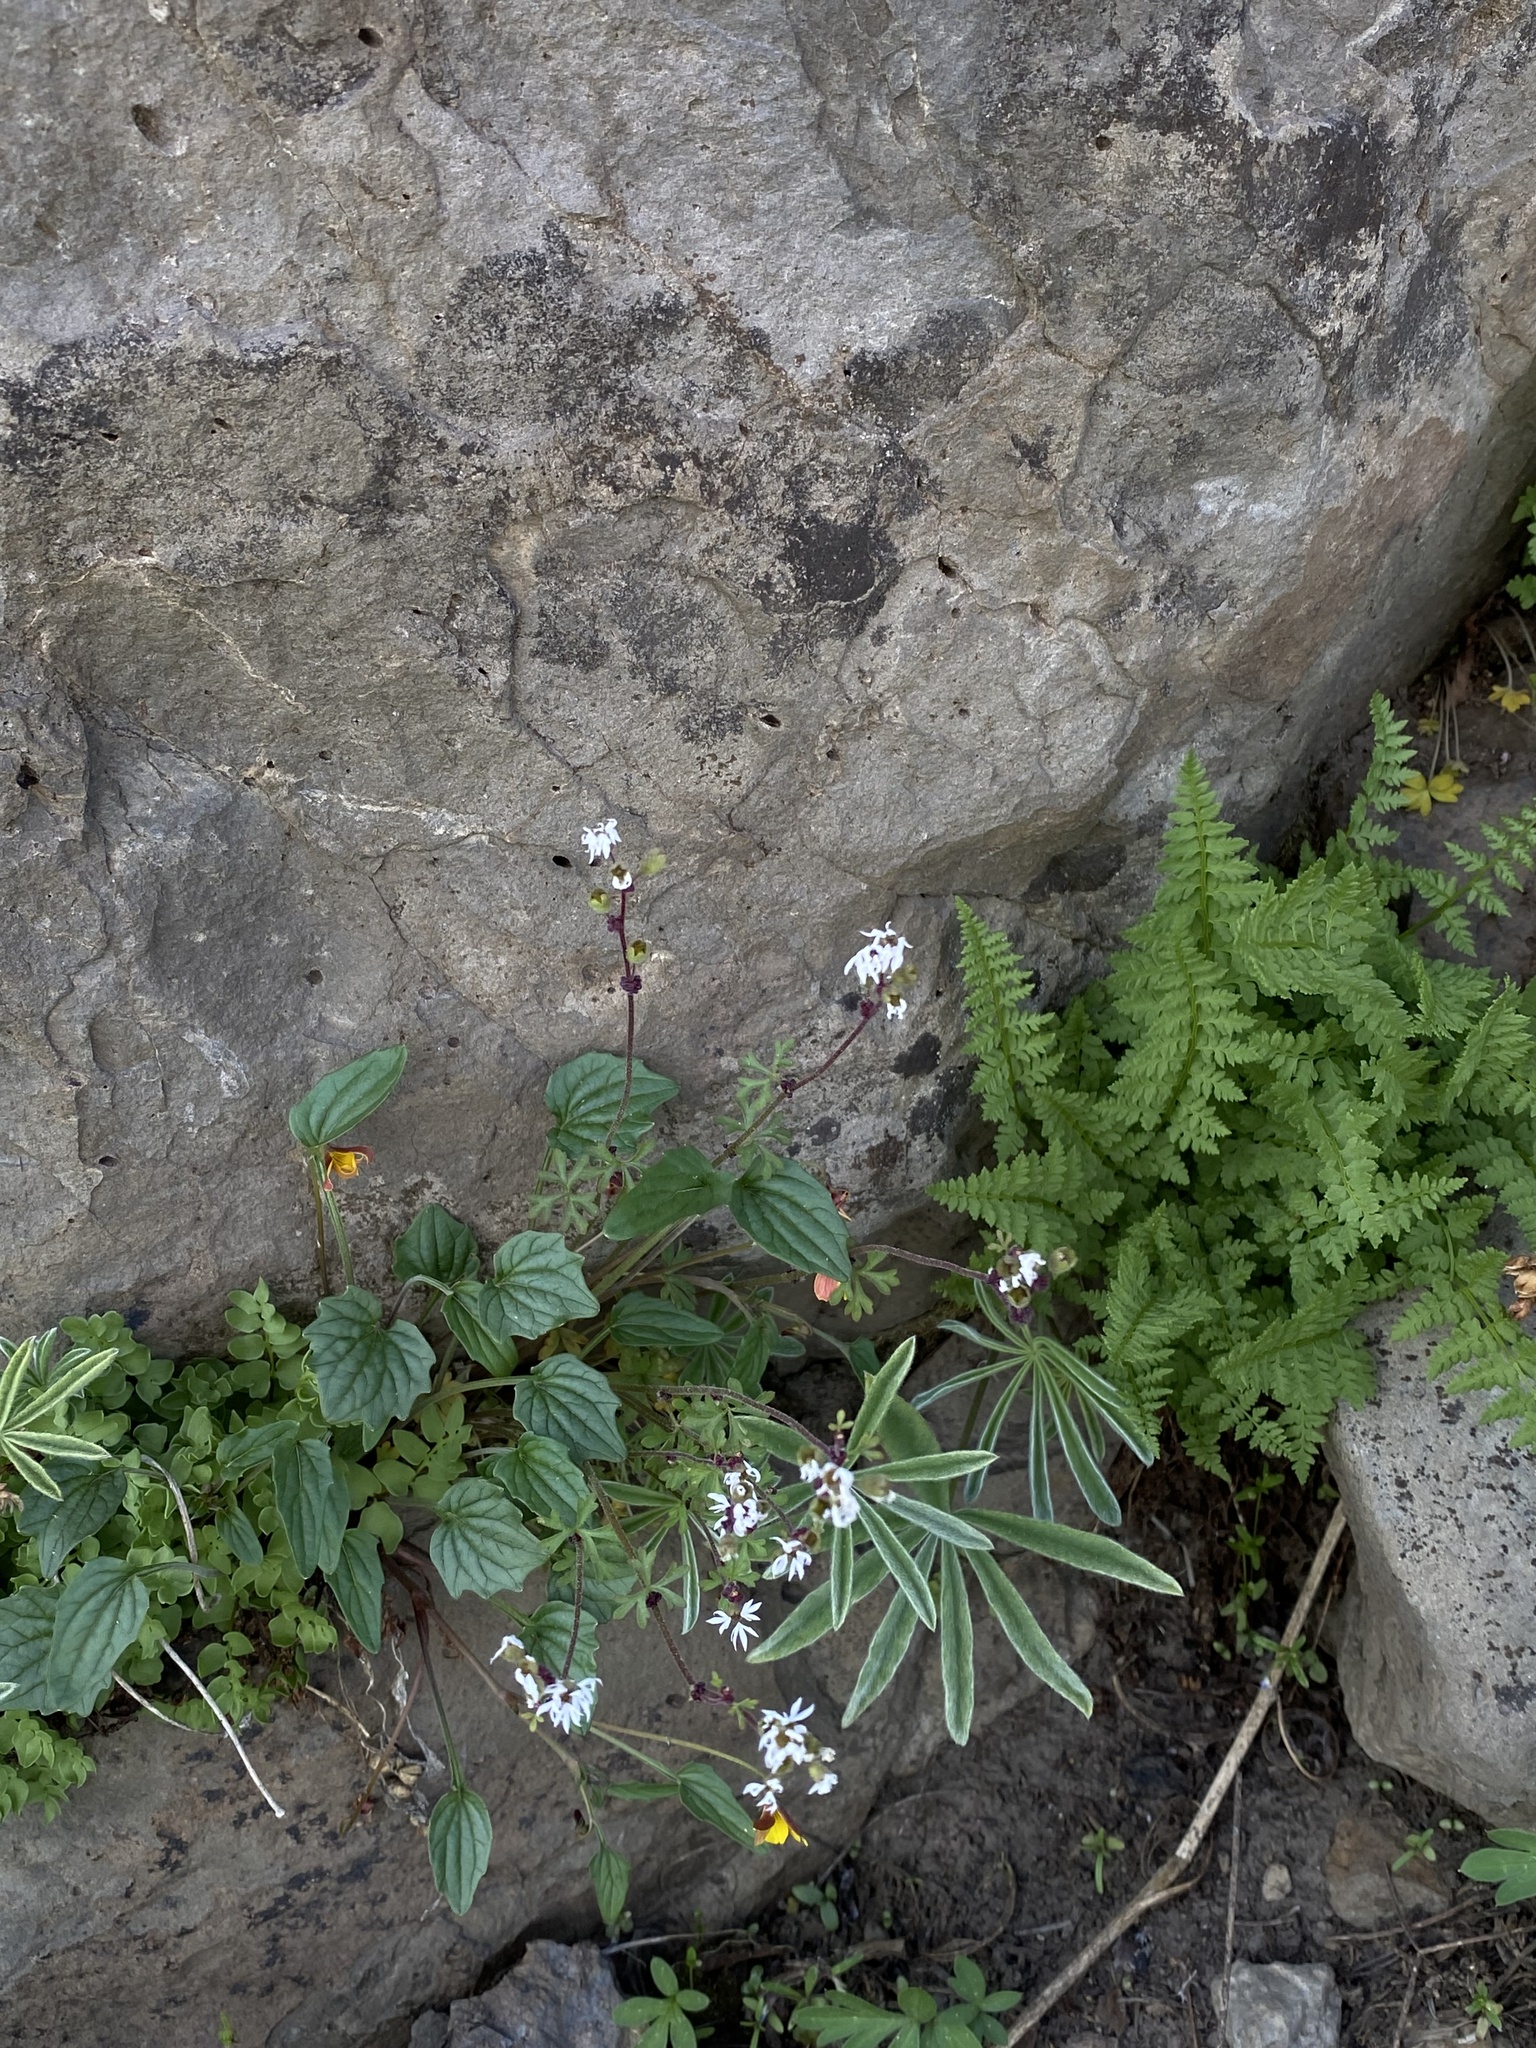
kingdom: Plantae
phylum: Tracheophyta
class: Magnoliopsida
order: Saxifragales
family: Saxifragaceae
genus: Lithophragma
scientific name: Lithophragma glabrum
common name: Bulbous prairie-star
